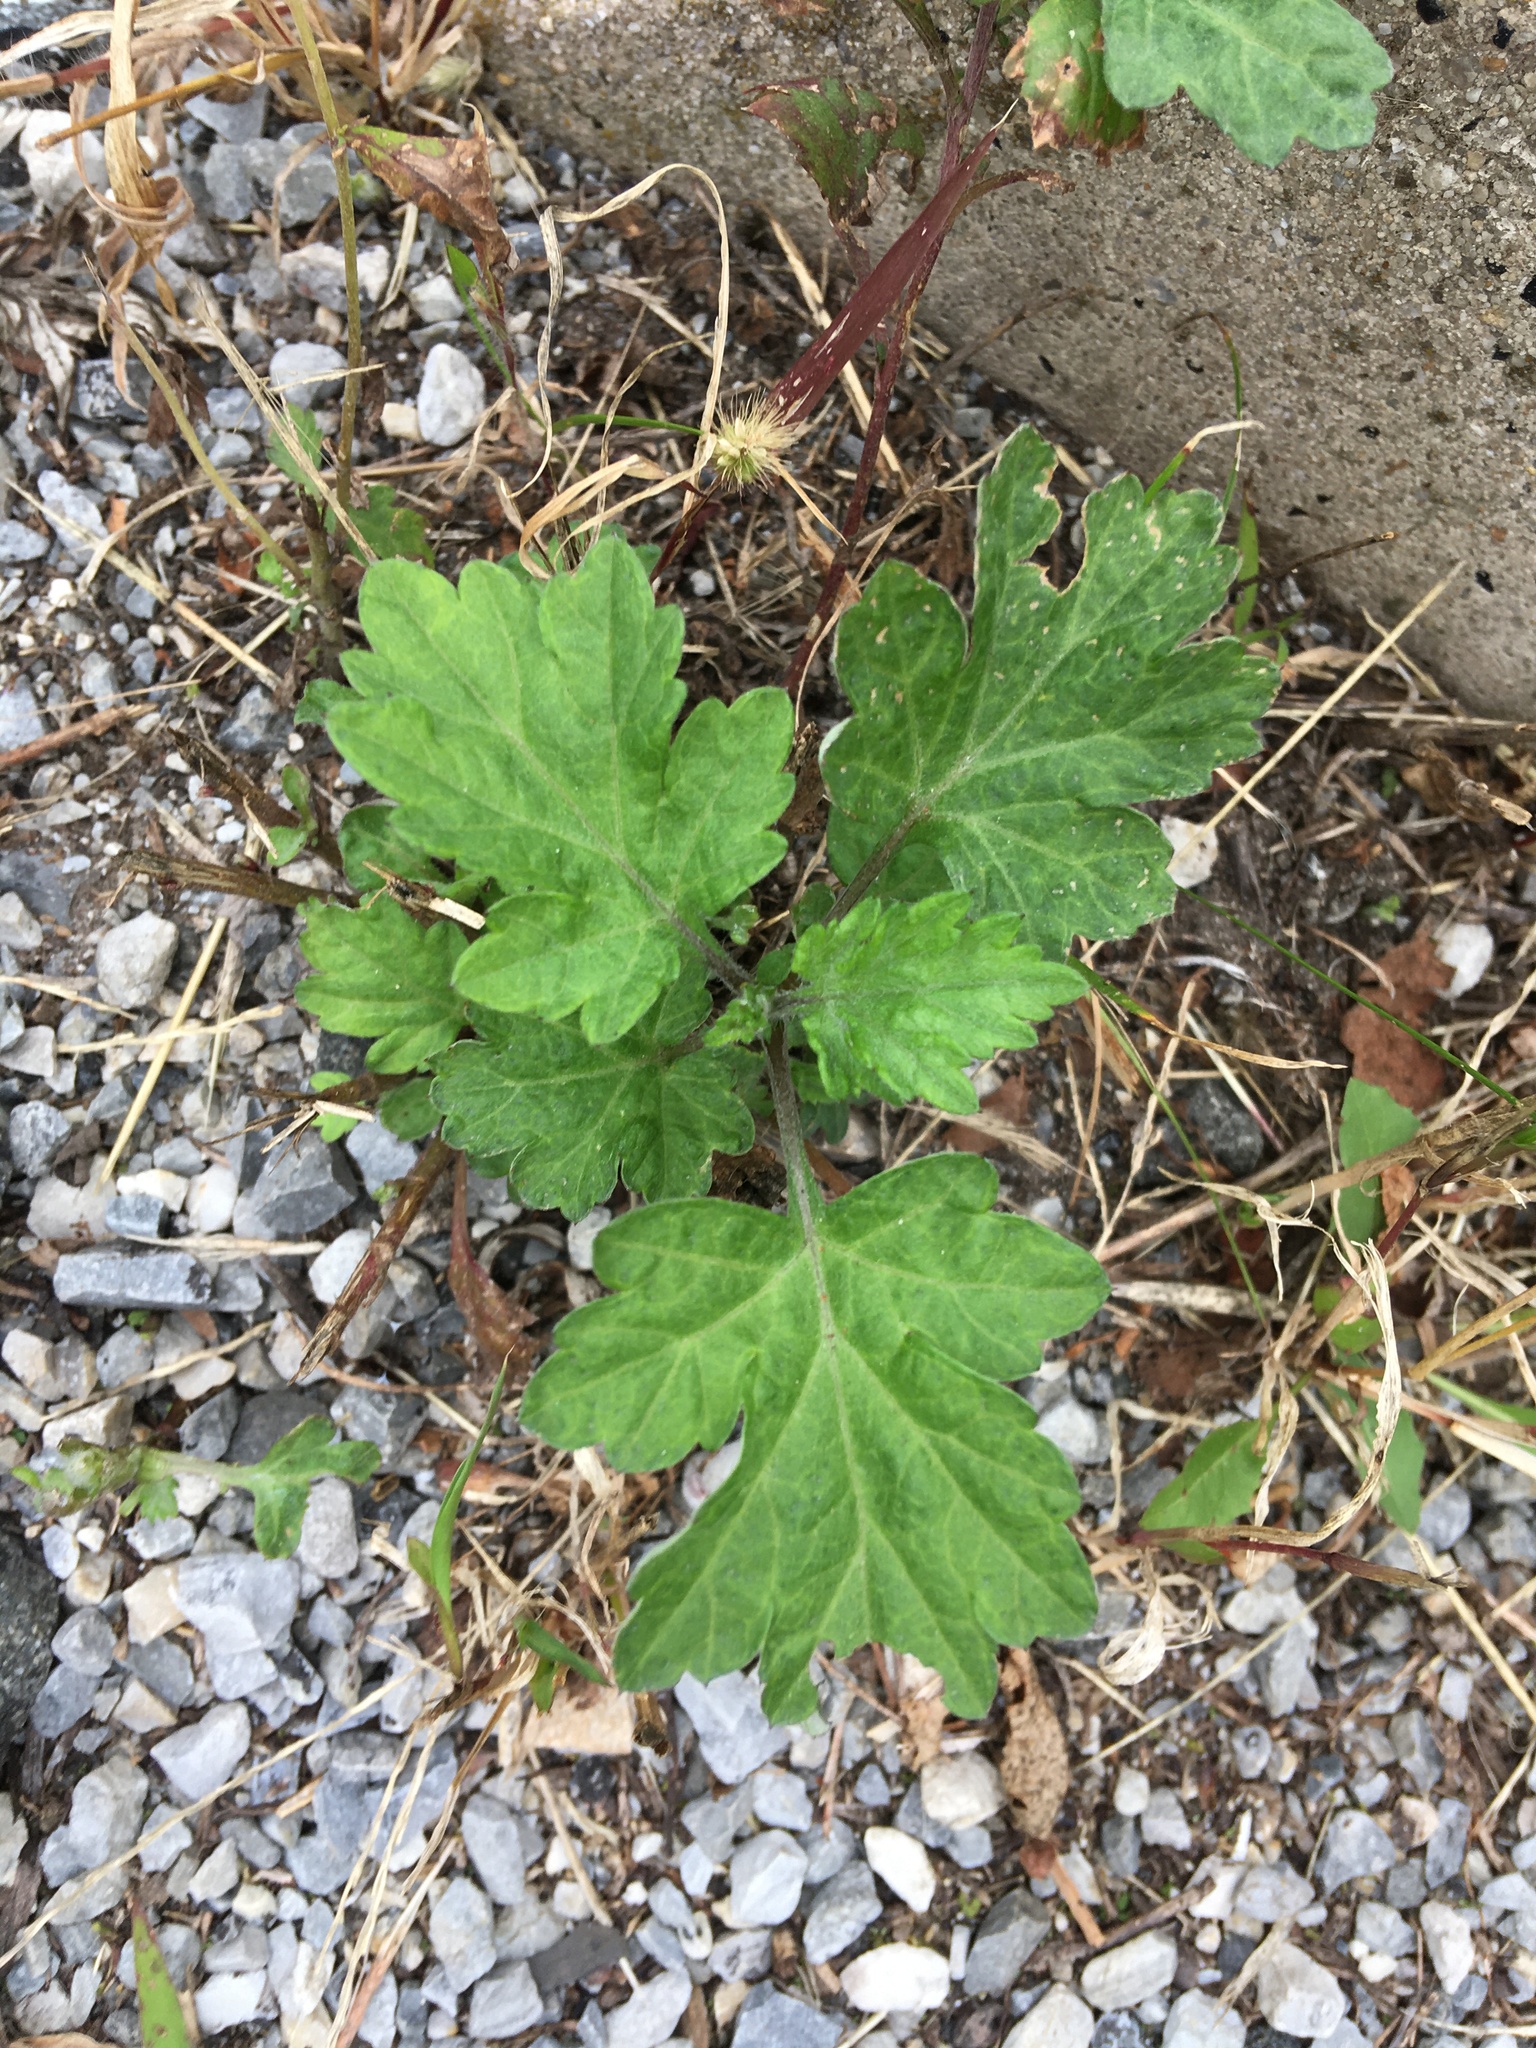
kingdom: Plantae
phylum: Tracheophyta
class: Magnoliopsida
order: Asterales
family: Asteraceae
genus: Artemisia
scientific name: Artemisia vulgaris
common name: Mugwort
